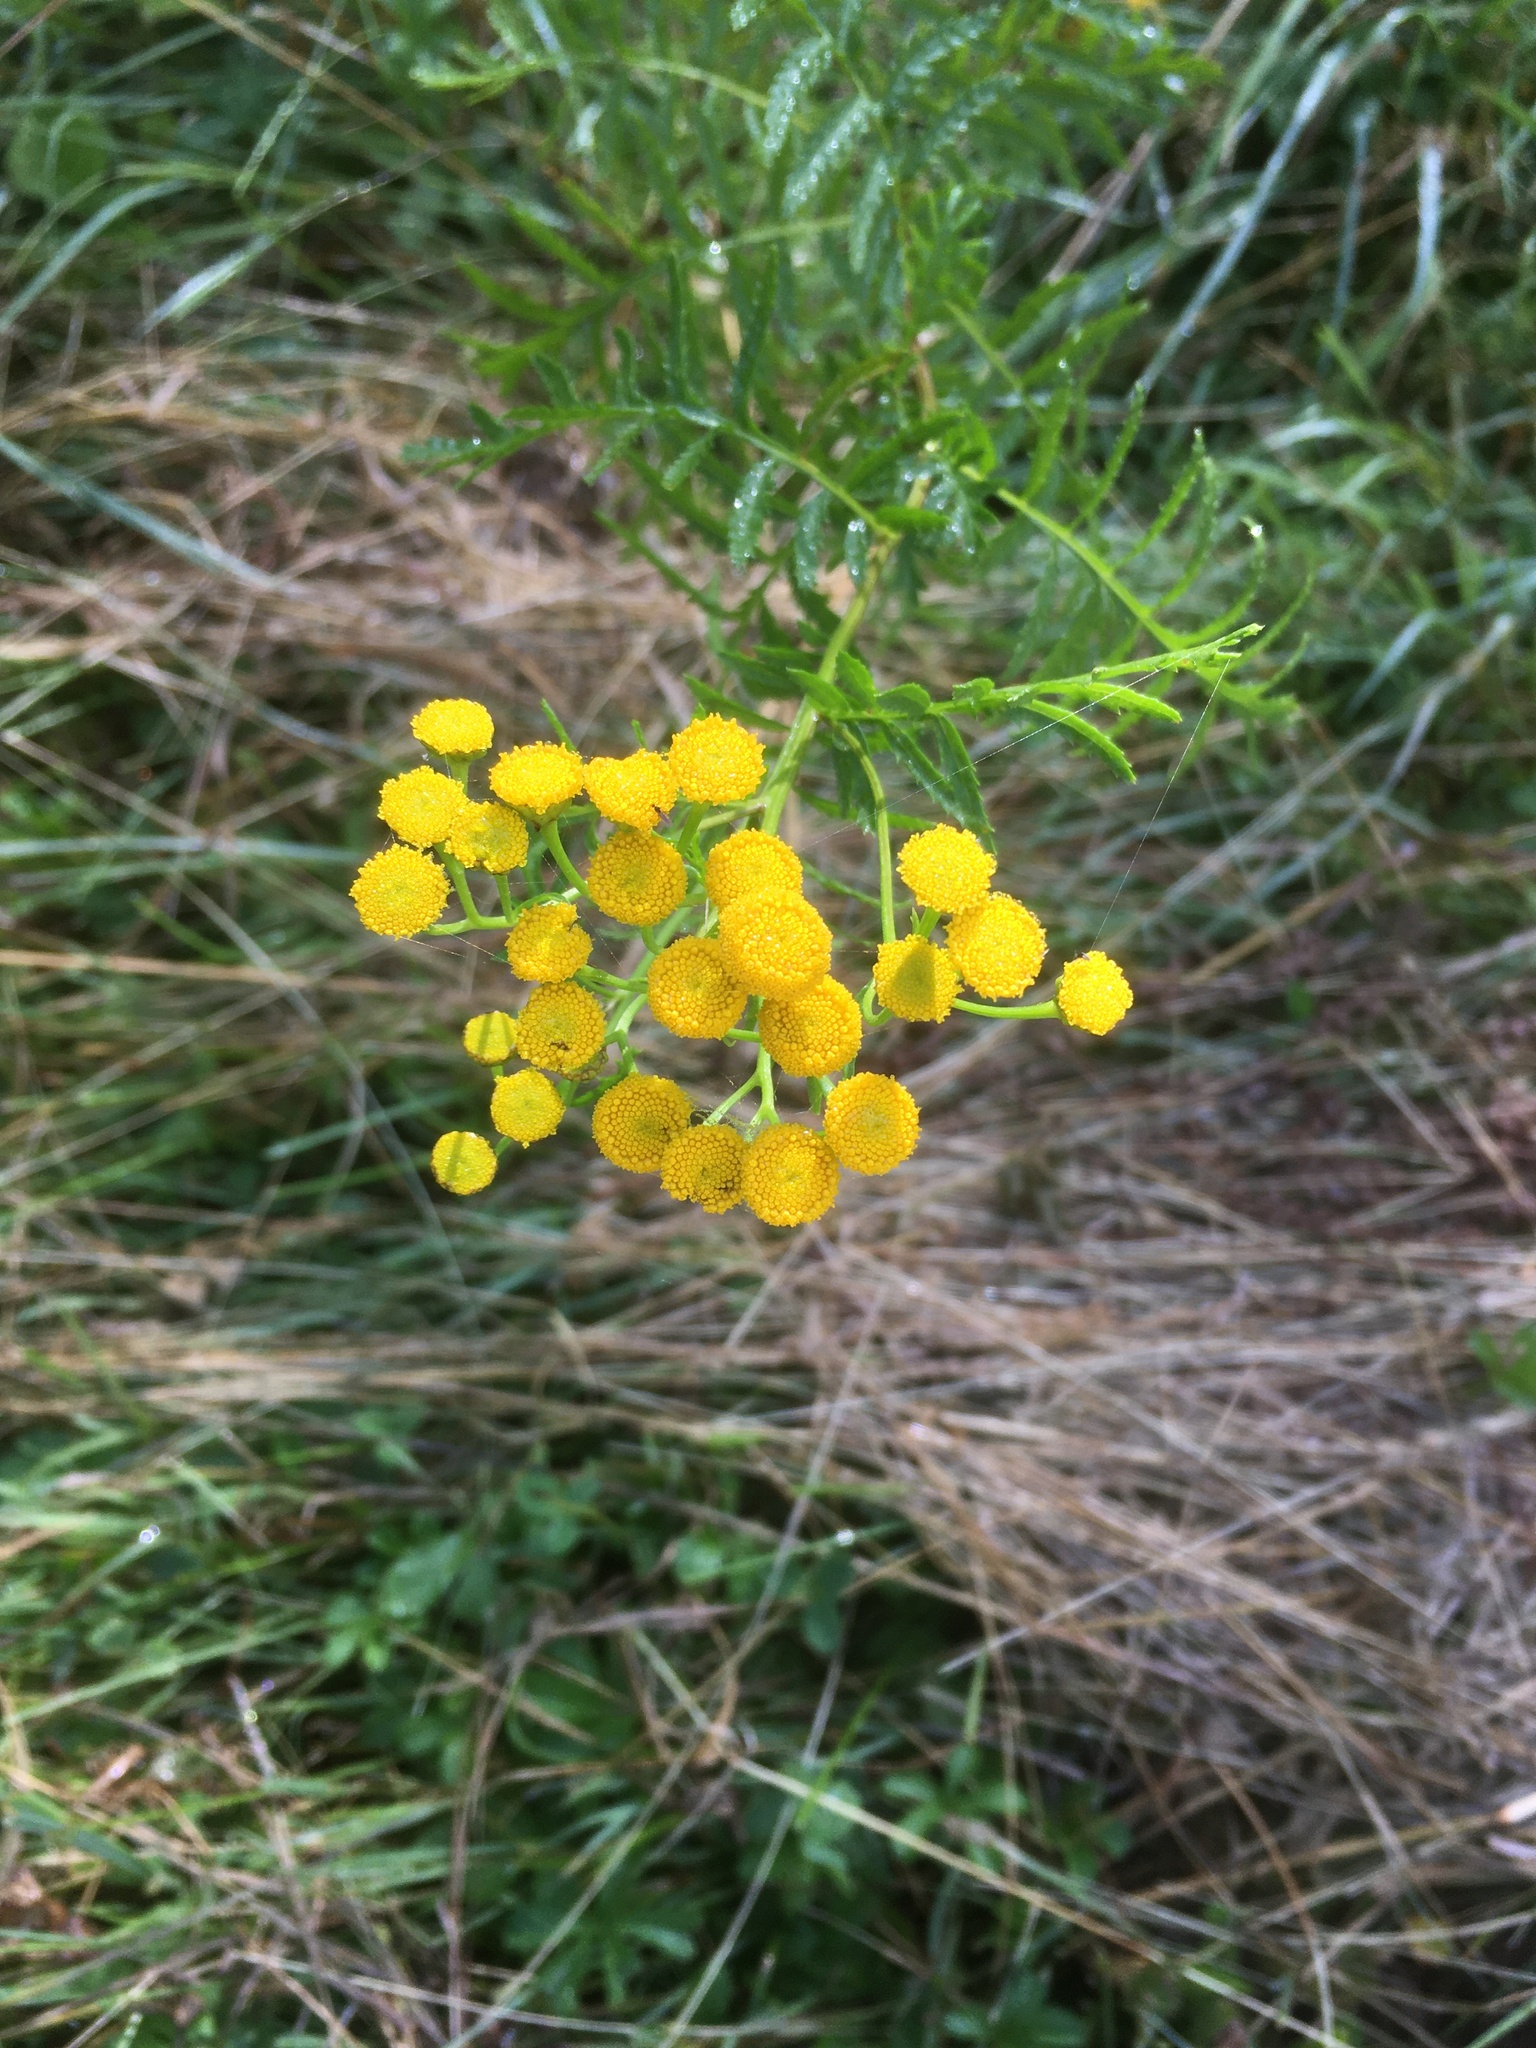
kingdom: Plantae
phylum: Tracheophyta
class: Magnoliopsida
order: Asterales
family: Asteraceae
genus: Tanacetum
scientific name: Tanacetum vulgare
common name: Common tansy
